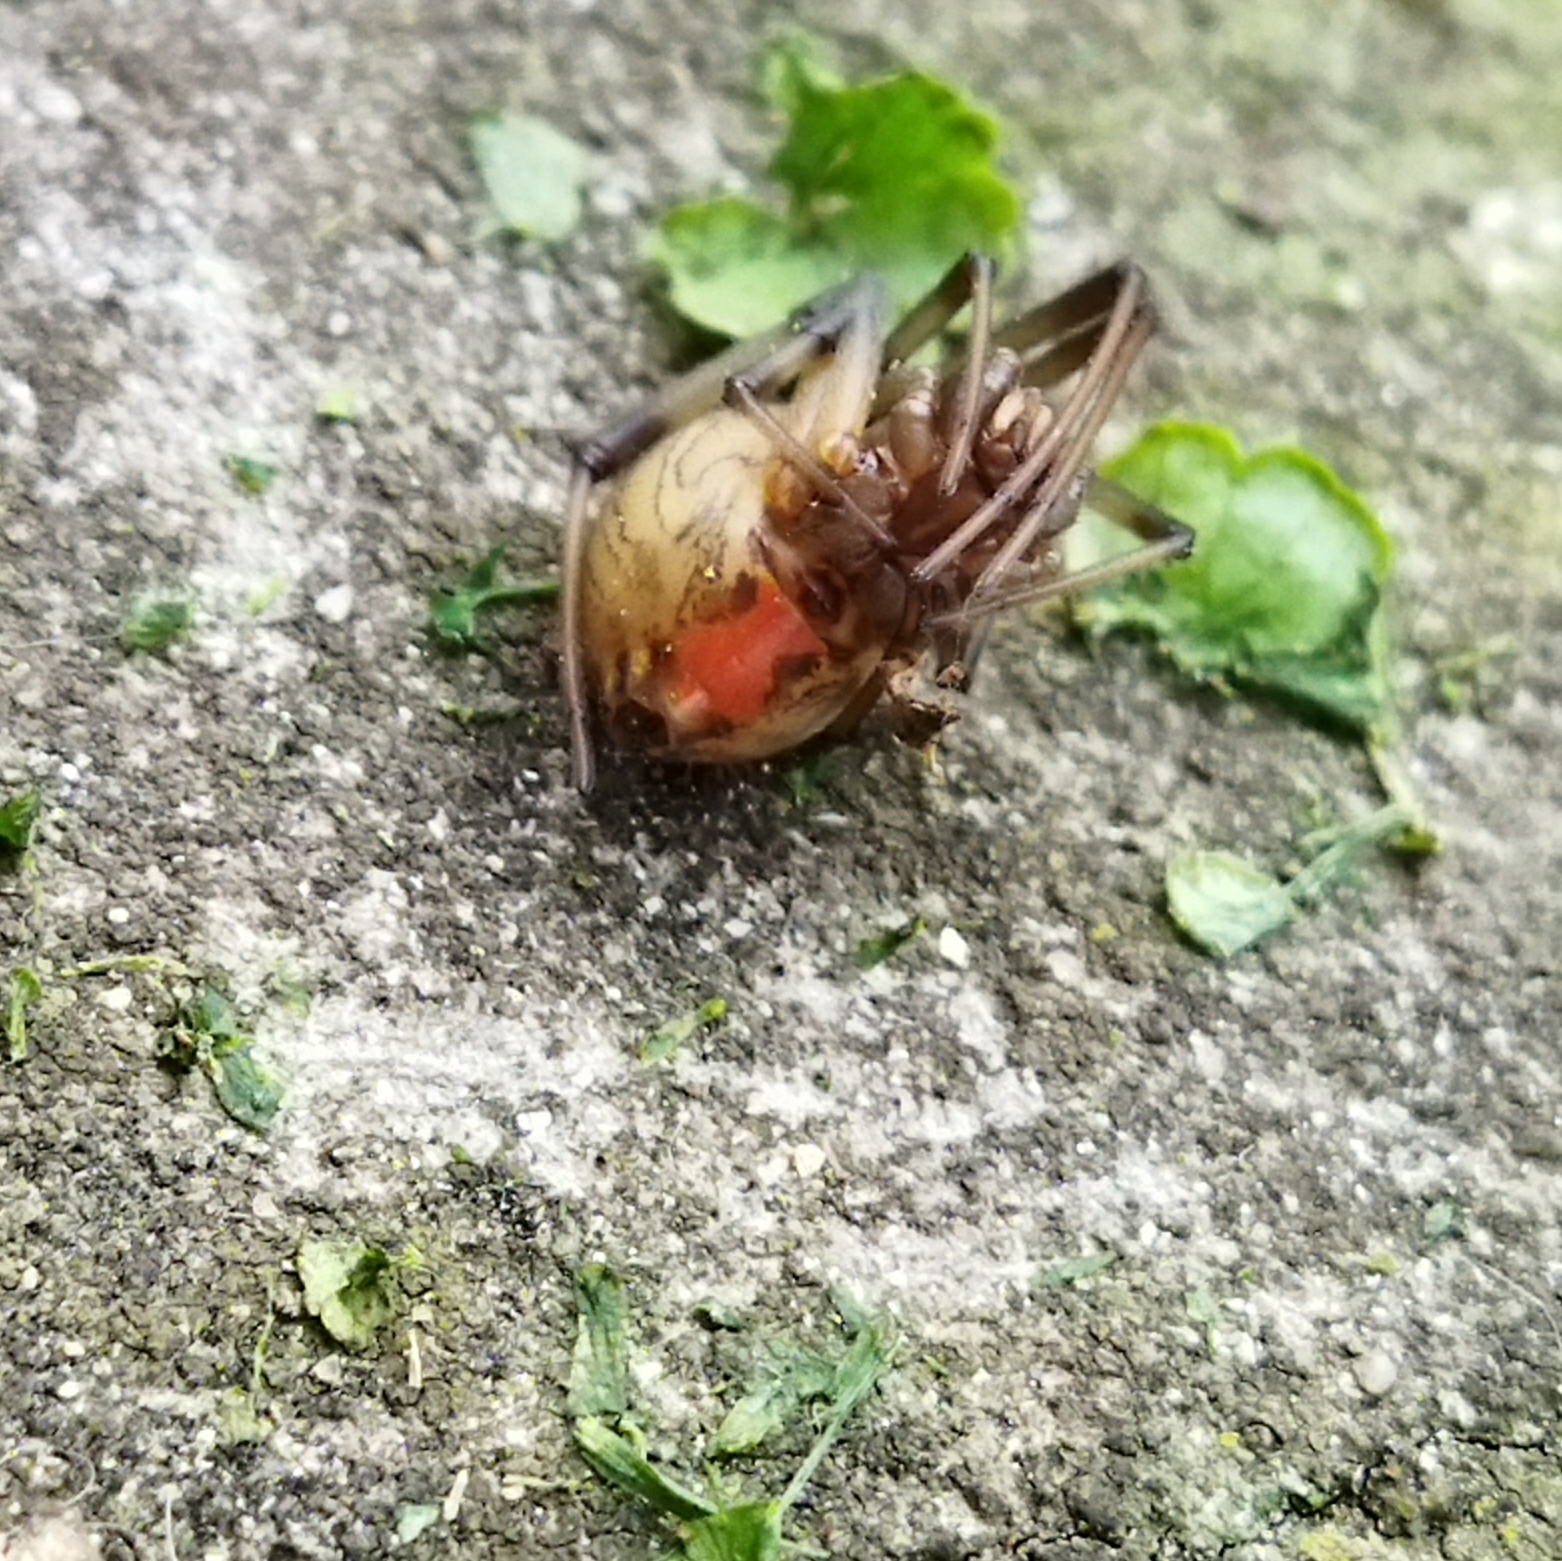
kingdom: Animalia
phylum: Arthropoda
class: Arachnida
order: Araneae
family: Theridiidae
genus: Latrodectus
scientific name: Latrodectus geometricus
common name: Brown widow spider
